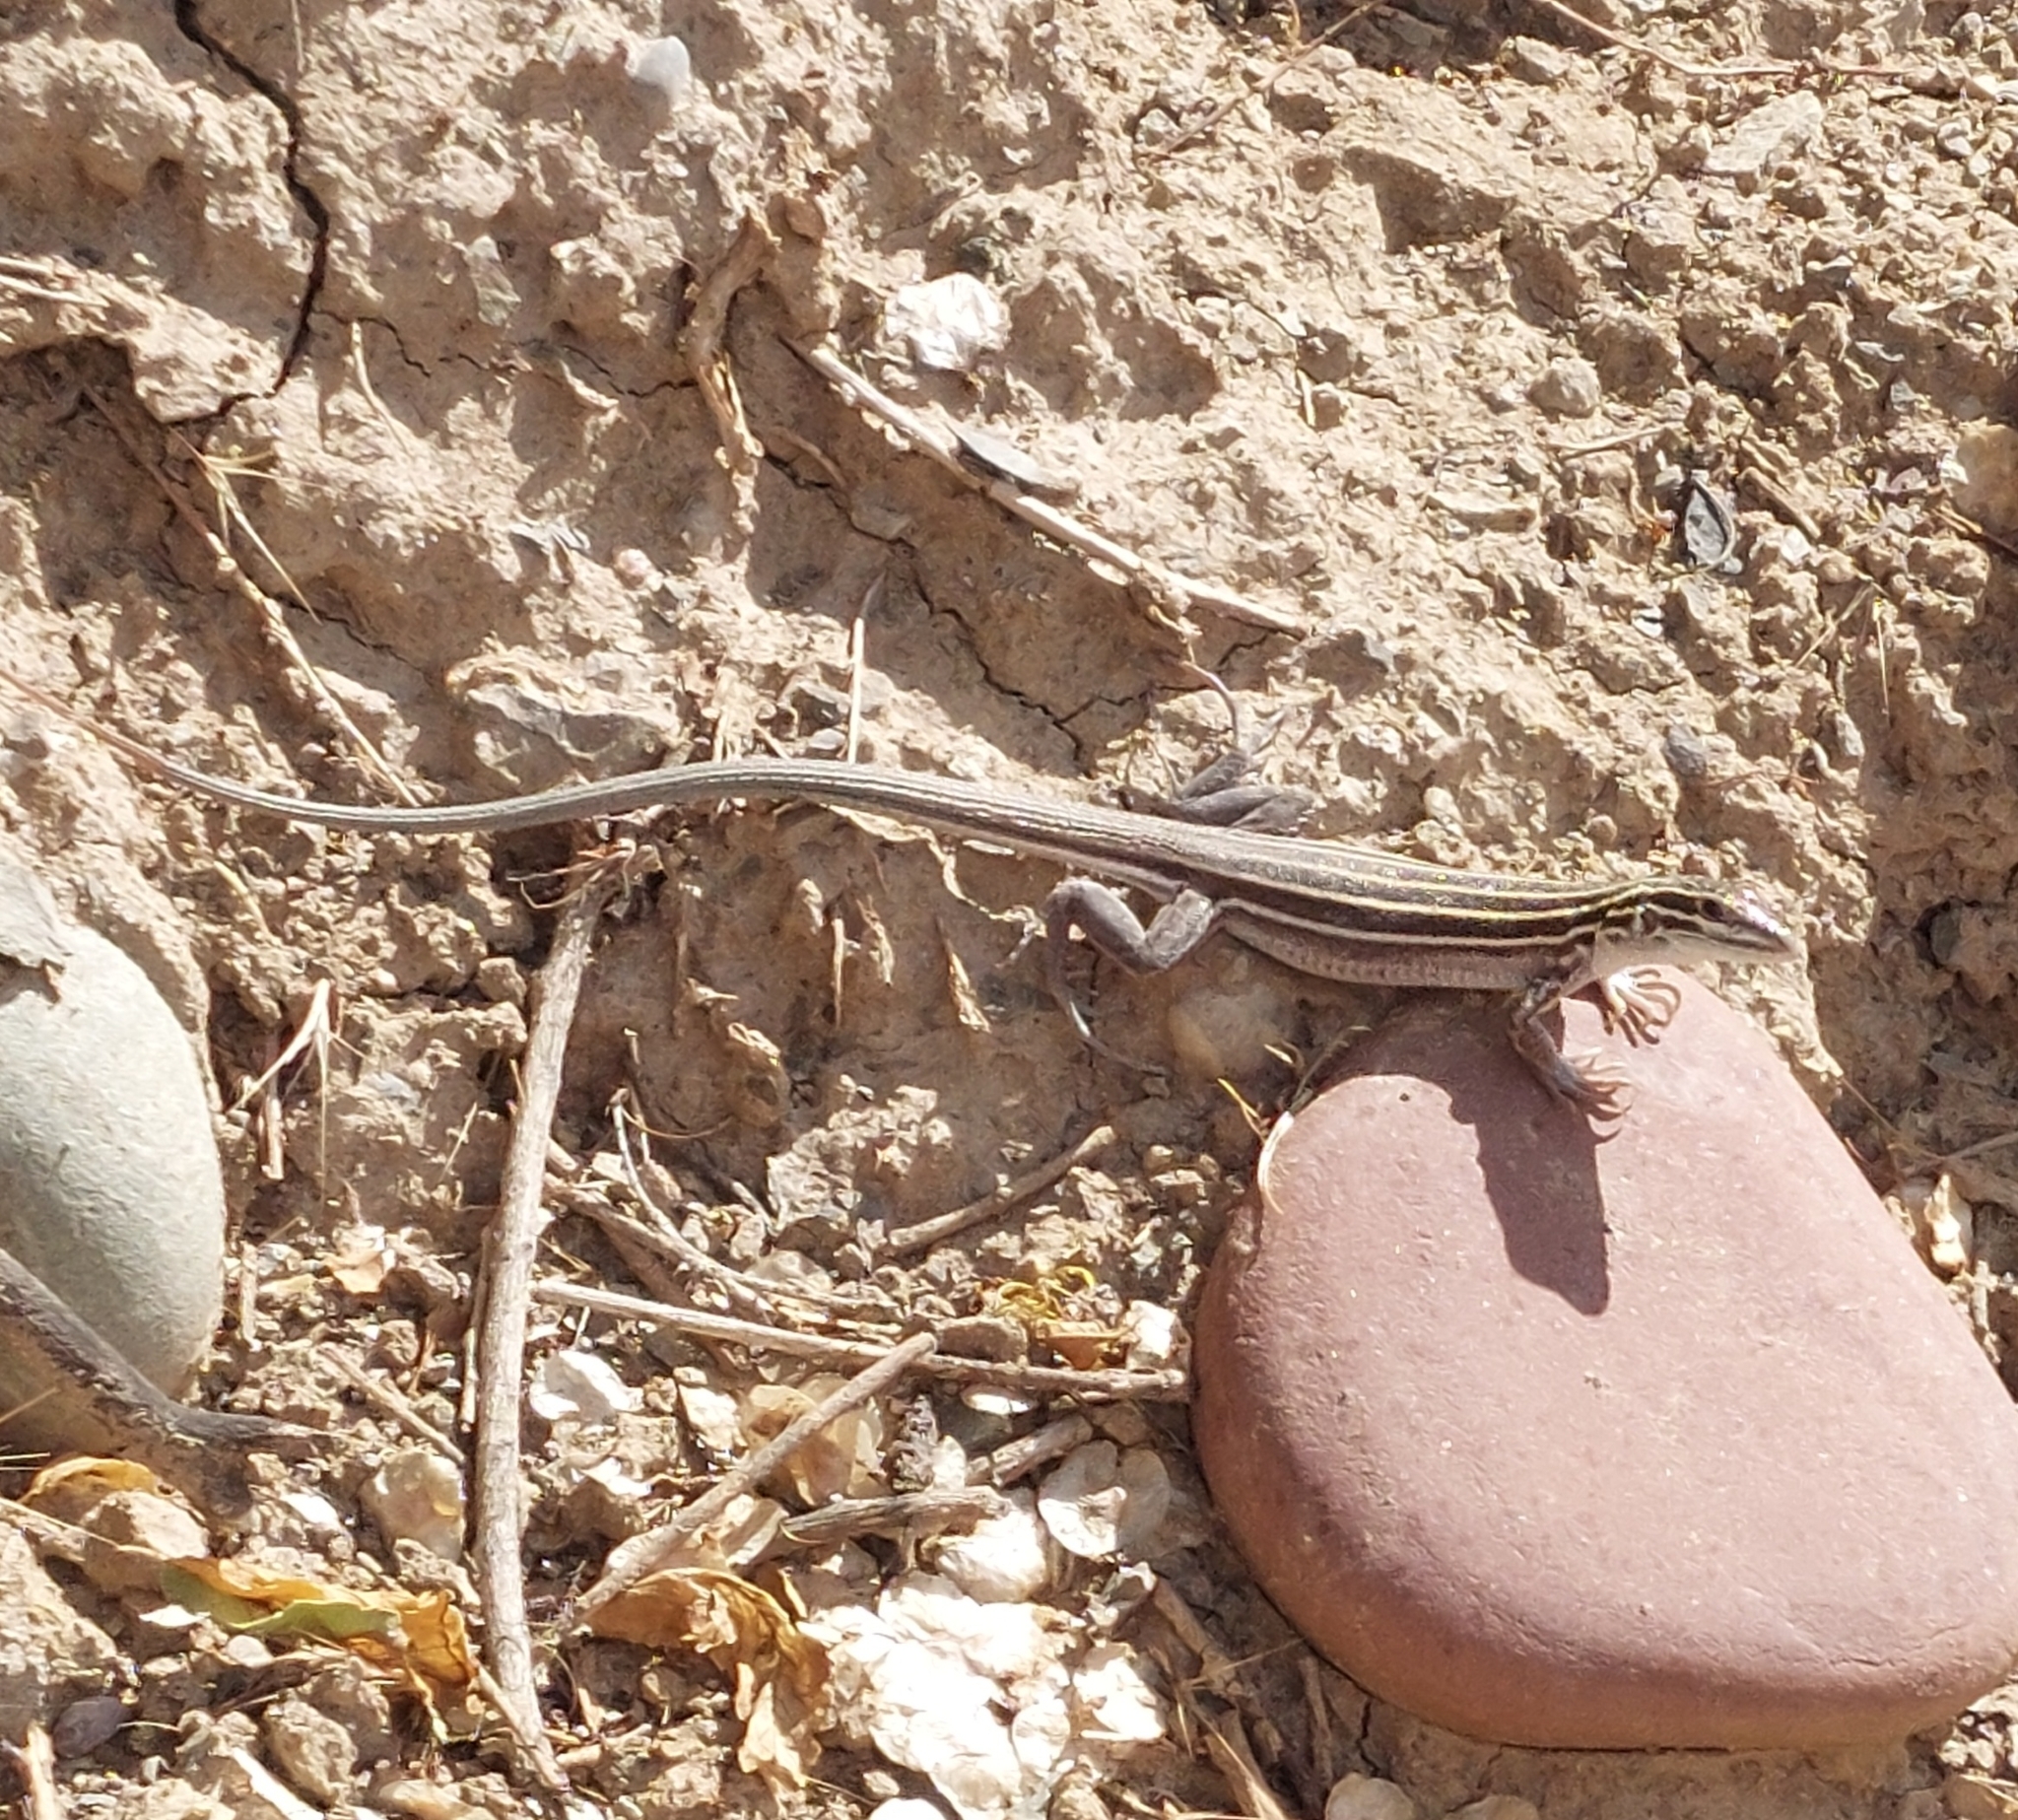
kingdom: Animalia
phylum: Chordata
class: Squamata
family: Teiidae
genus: Aspidoscelis
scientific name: Aspidoscelis velox
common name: Plateau striped whiptail
